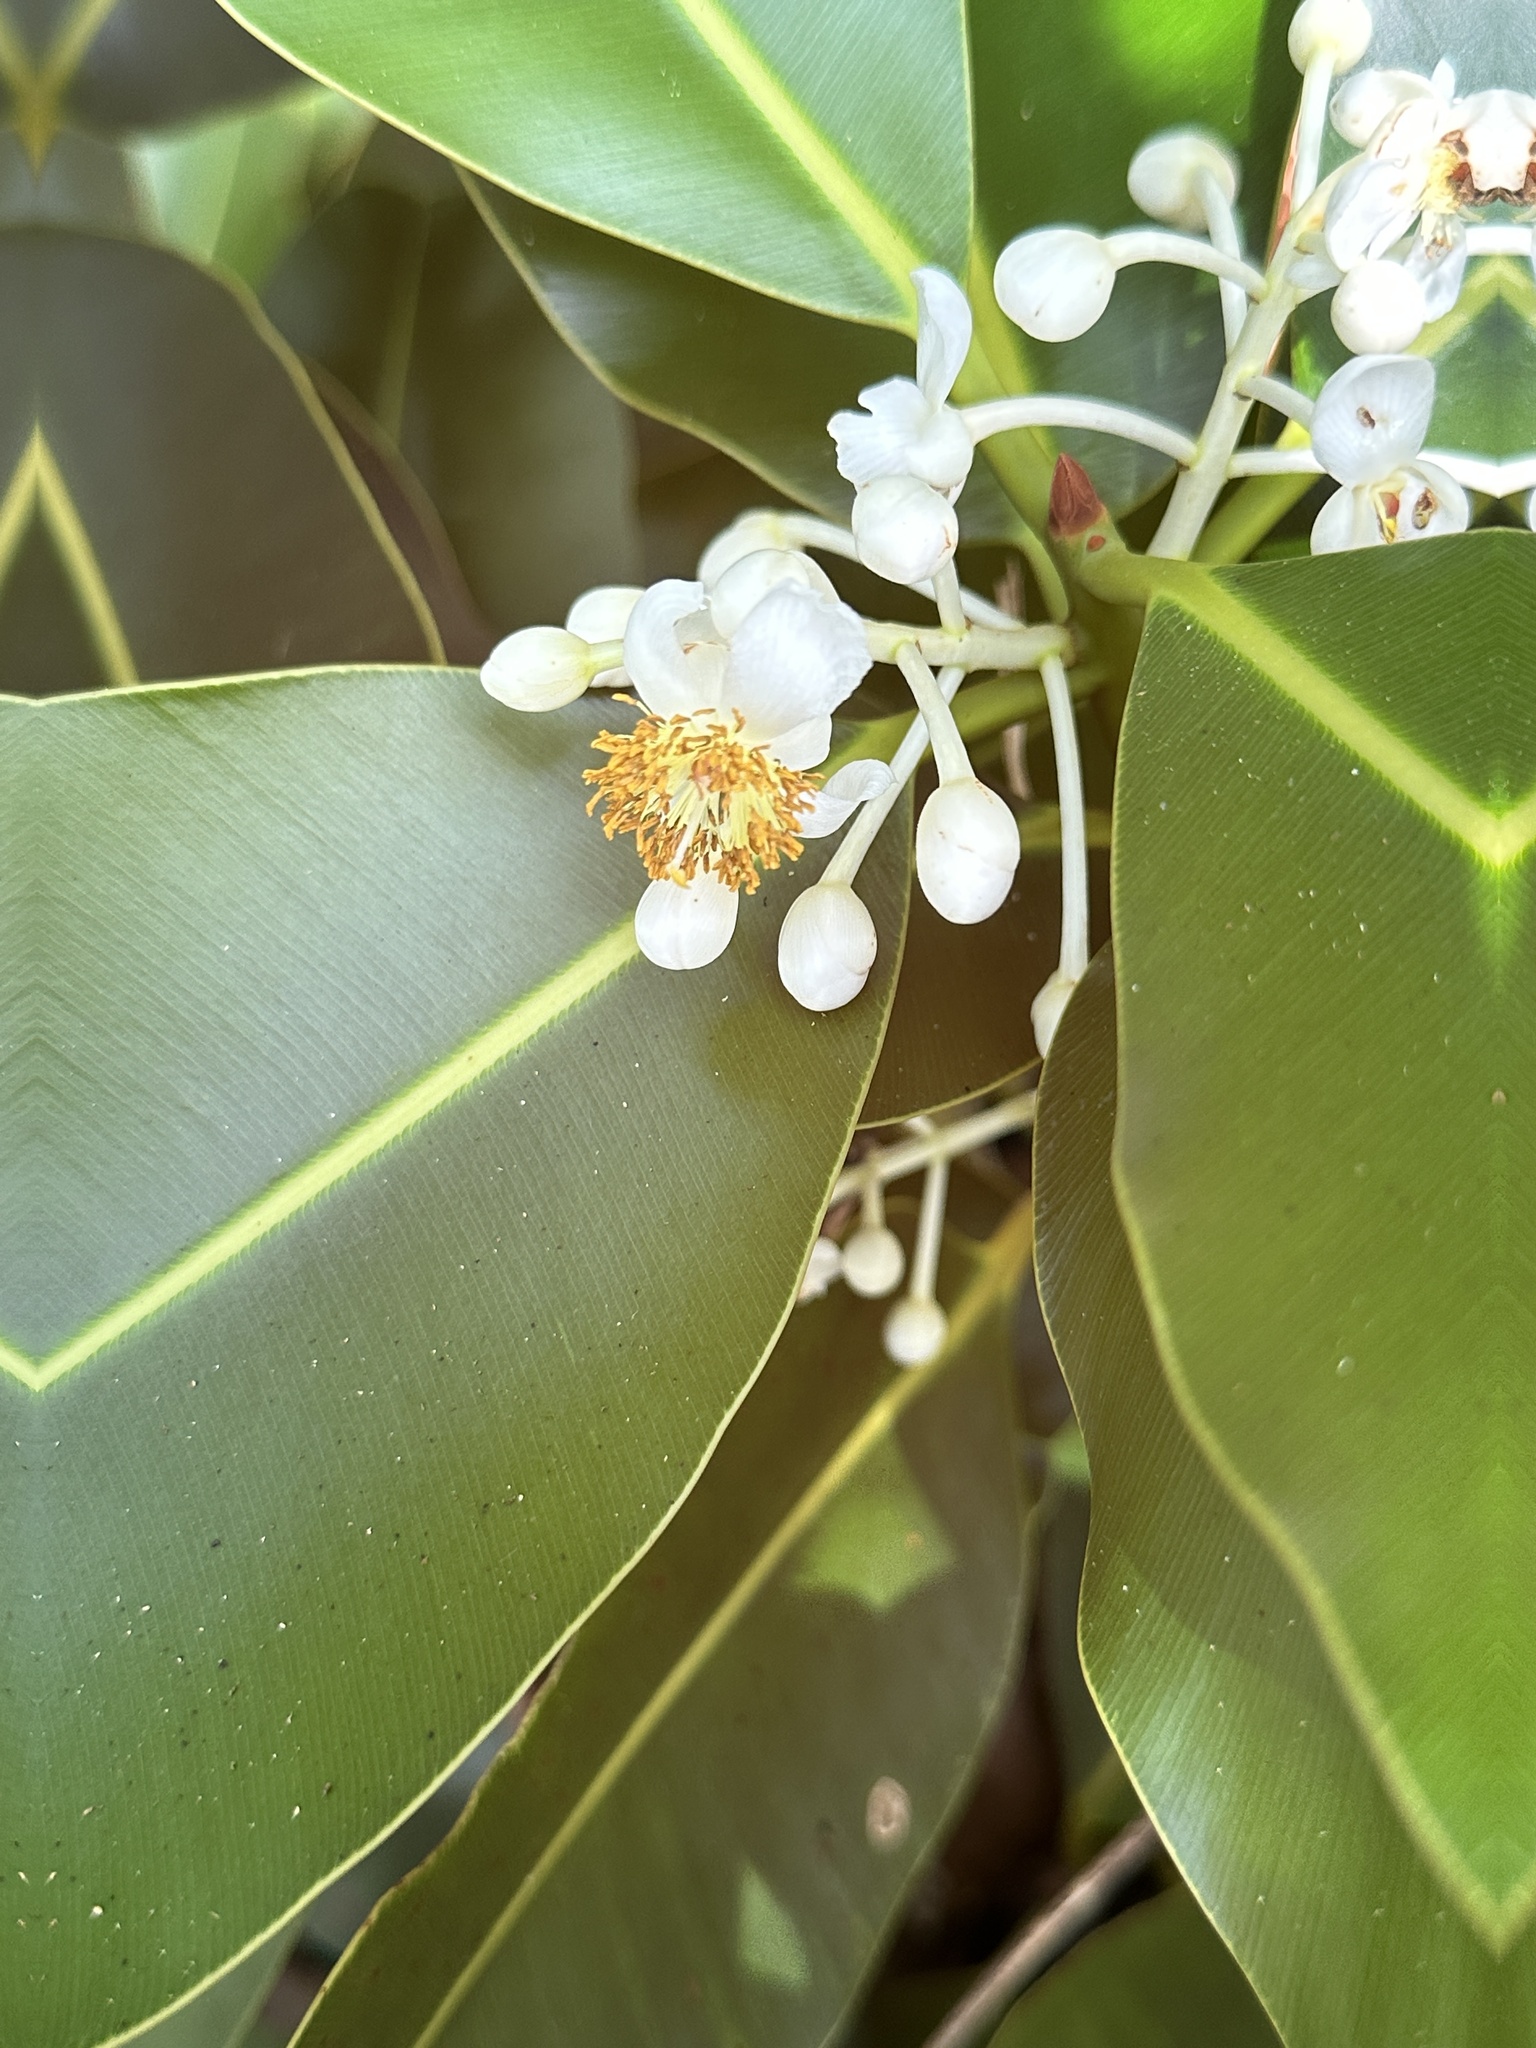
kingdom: Plantae
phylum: Tracheophyta
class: Magnoliopsida
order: Malpighiales
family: Calophyllaceae
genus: Calophyllum
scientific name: Calophyllum inophyllum
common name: Alexandrian laurel
